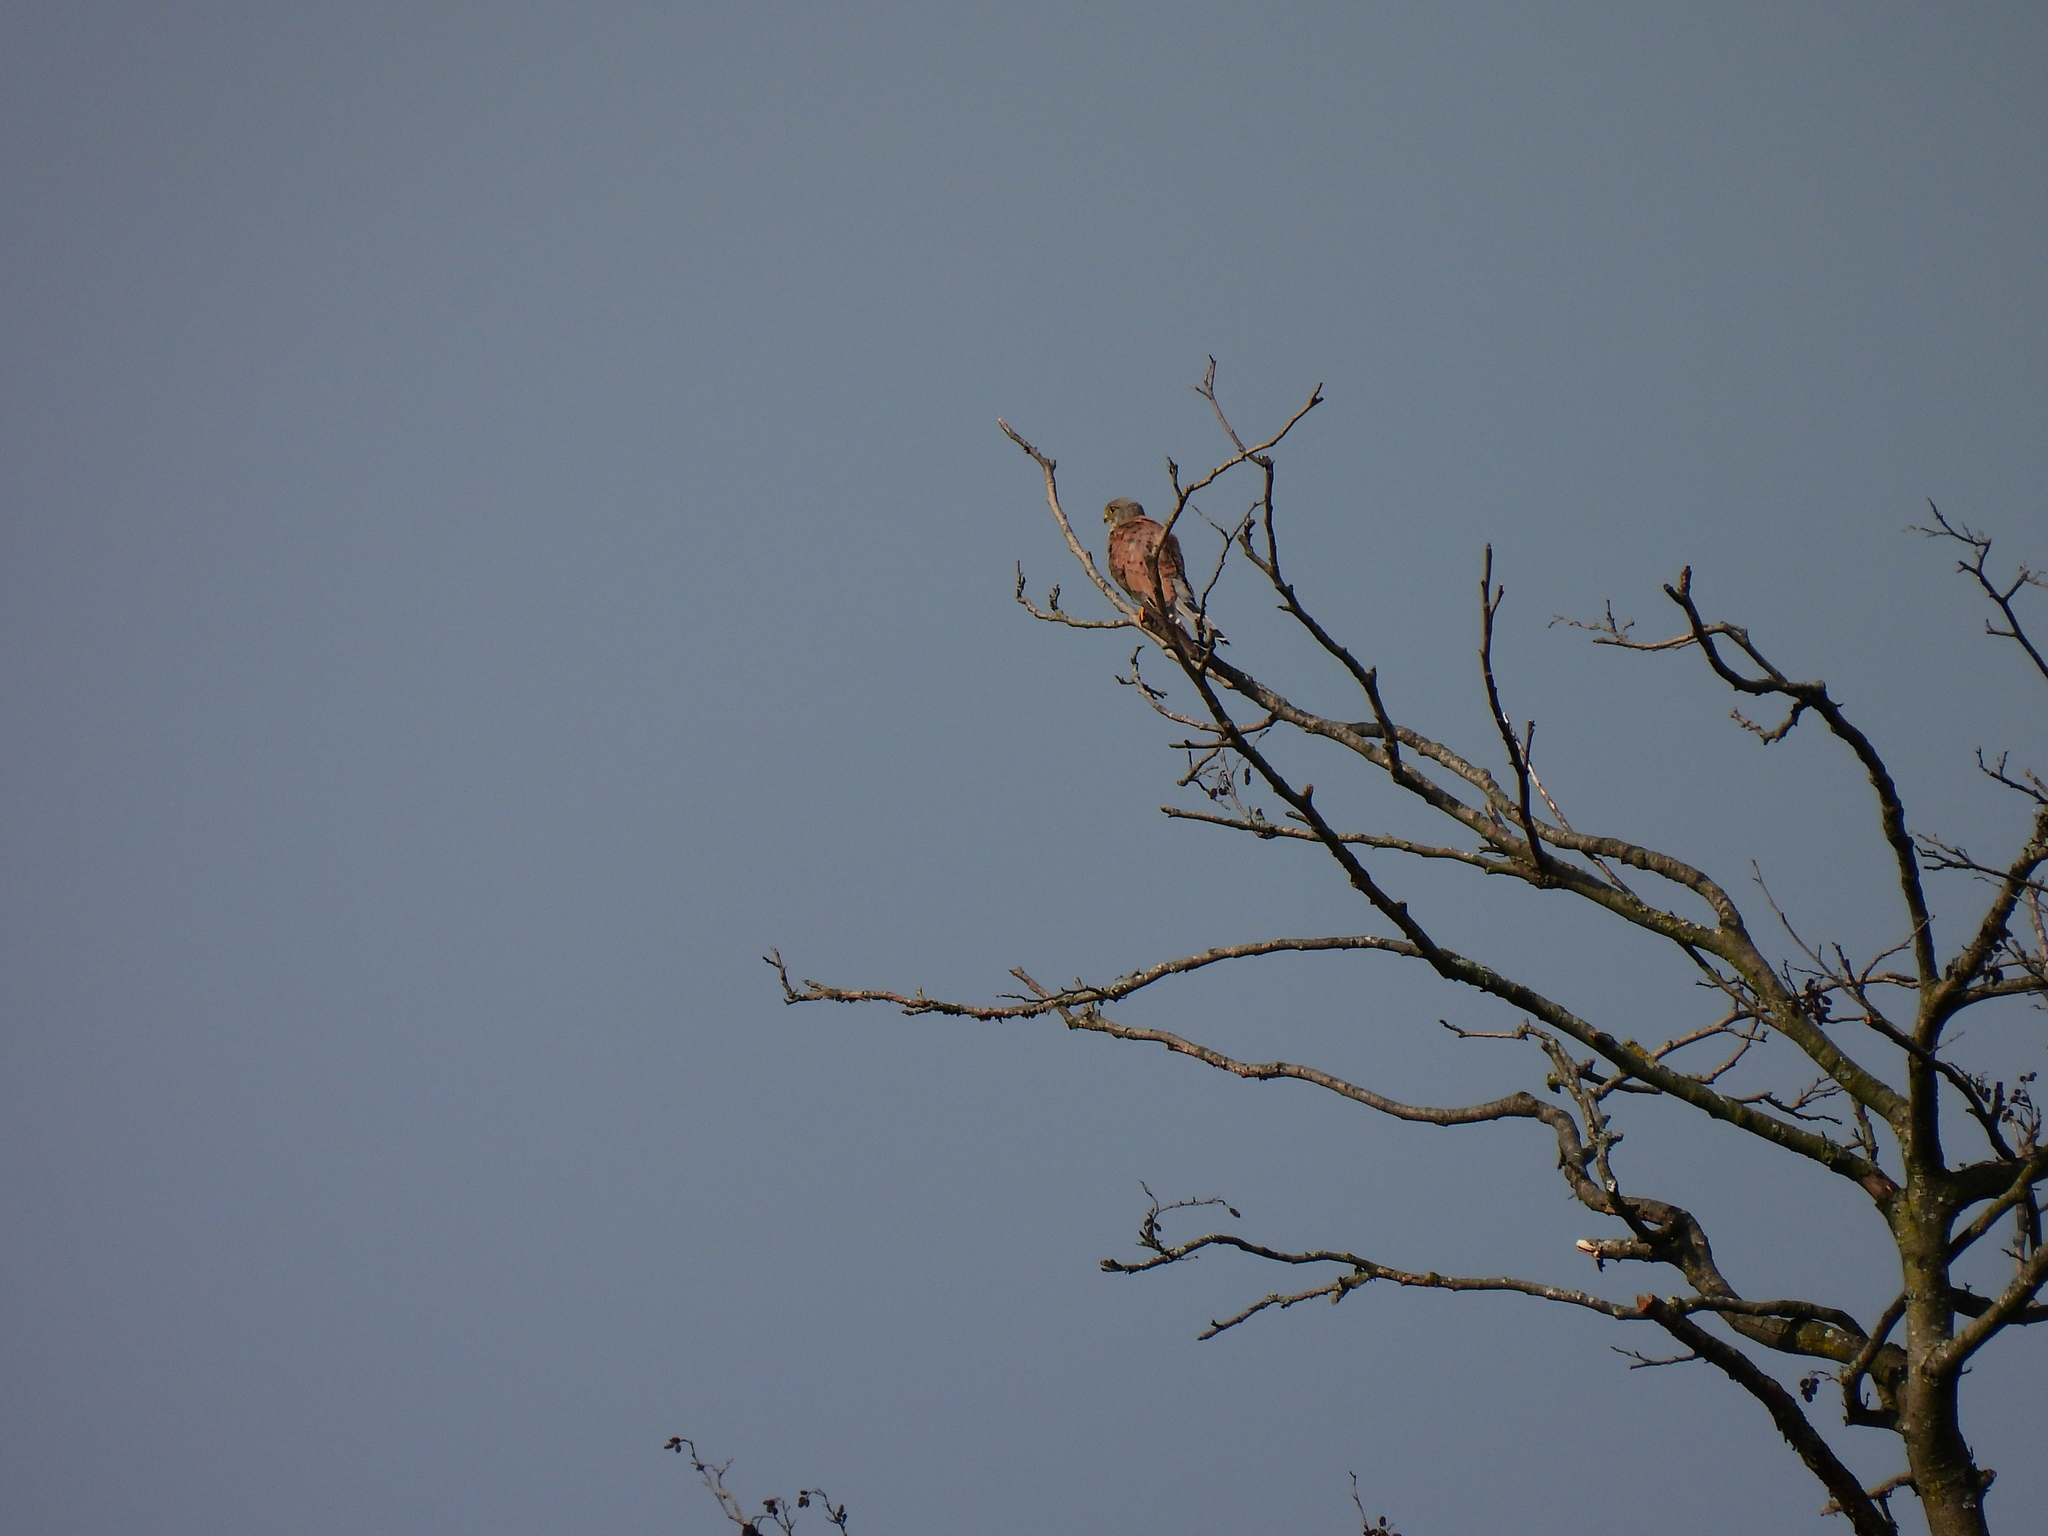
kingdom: Animalia
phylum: Chordata
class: Aves
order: Falconiformes
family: Falconidae
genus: Falco
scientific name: Falco tinnunculus
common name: Common kestrel
